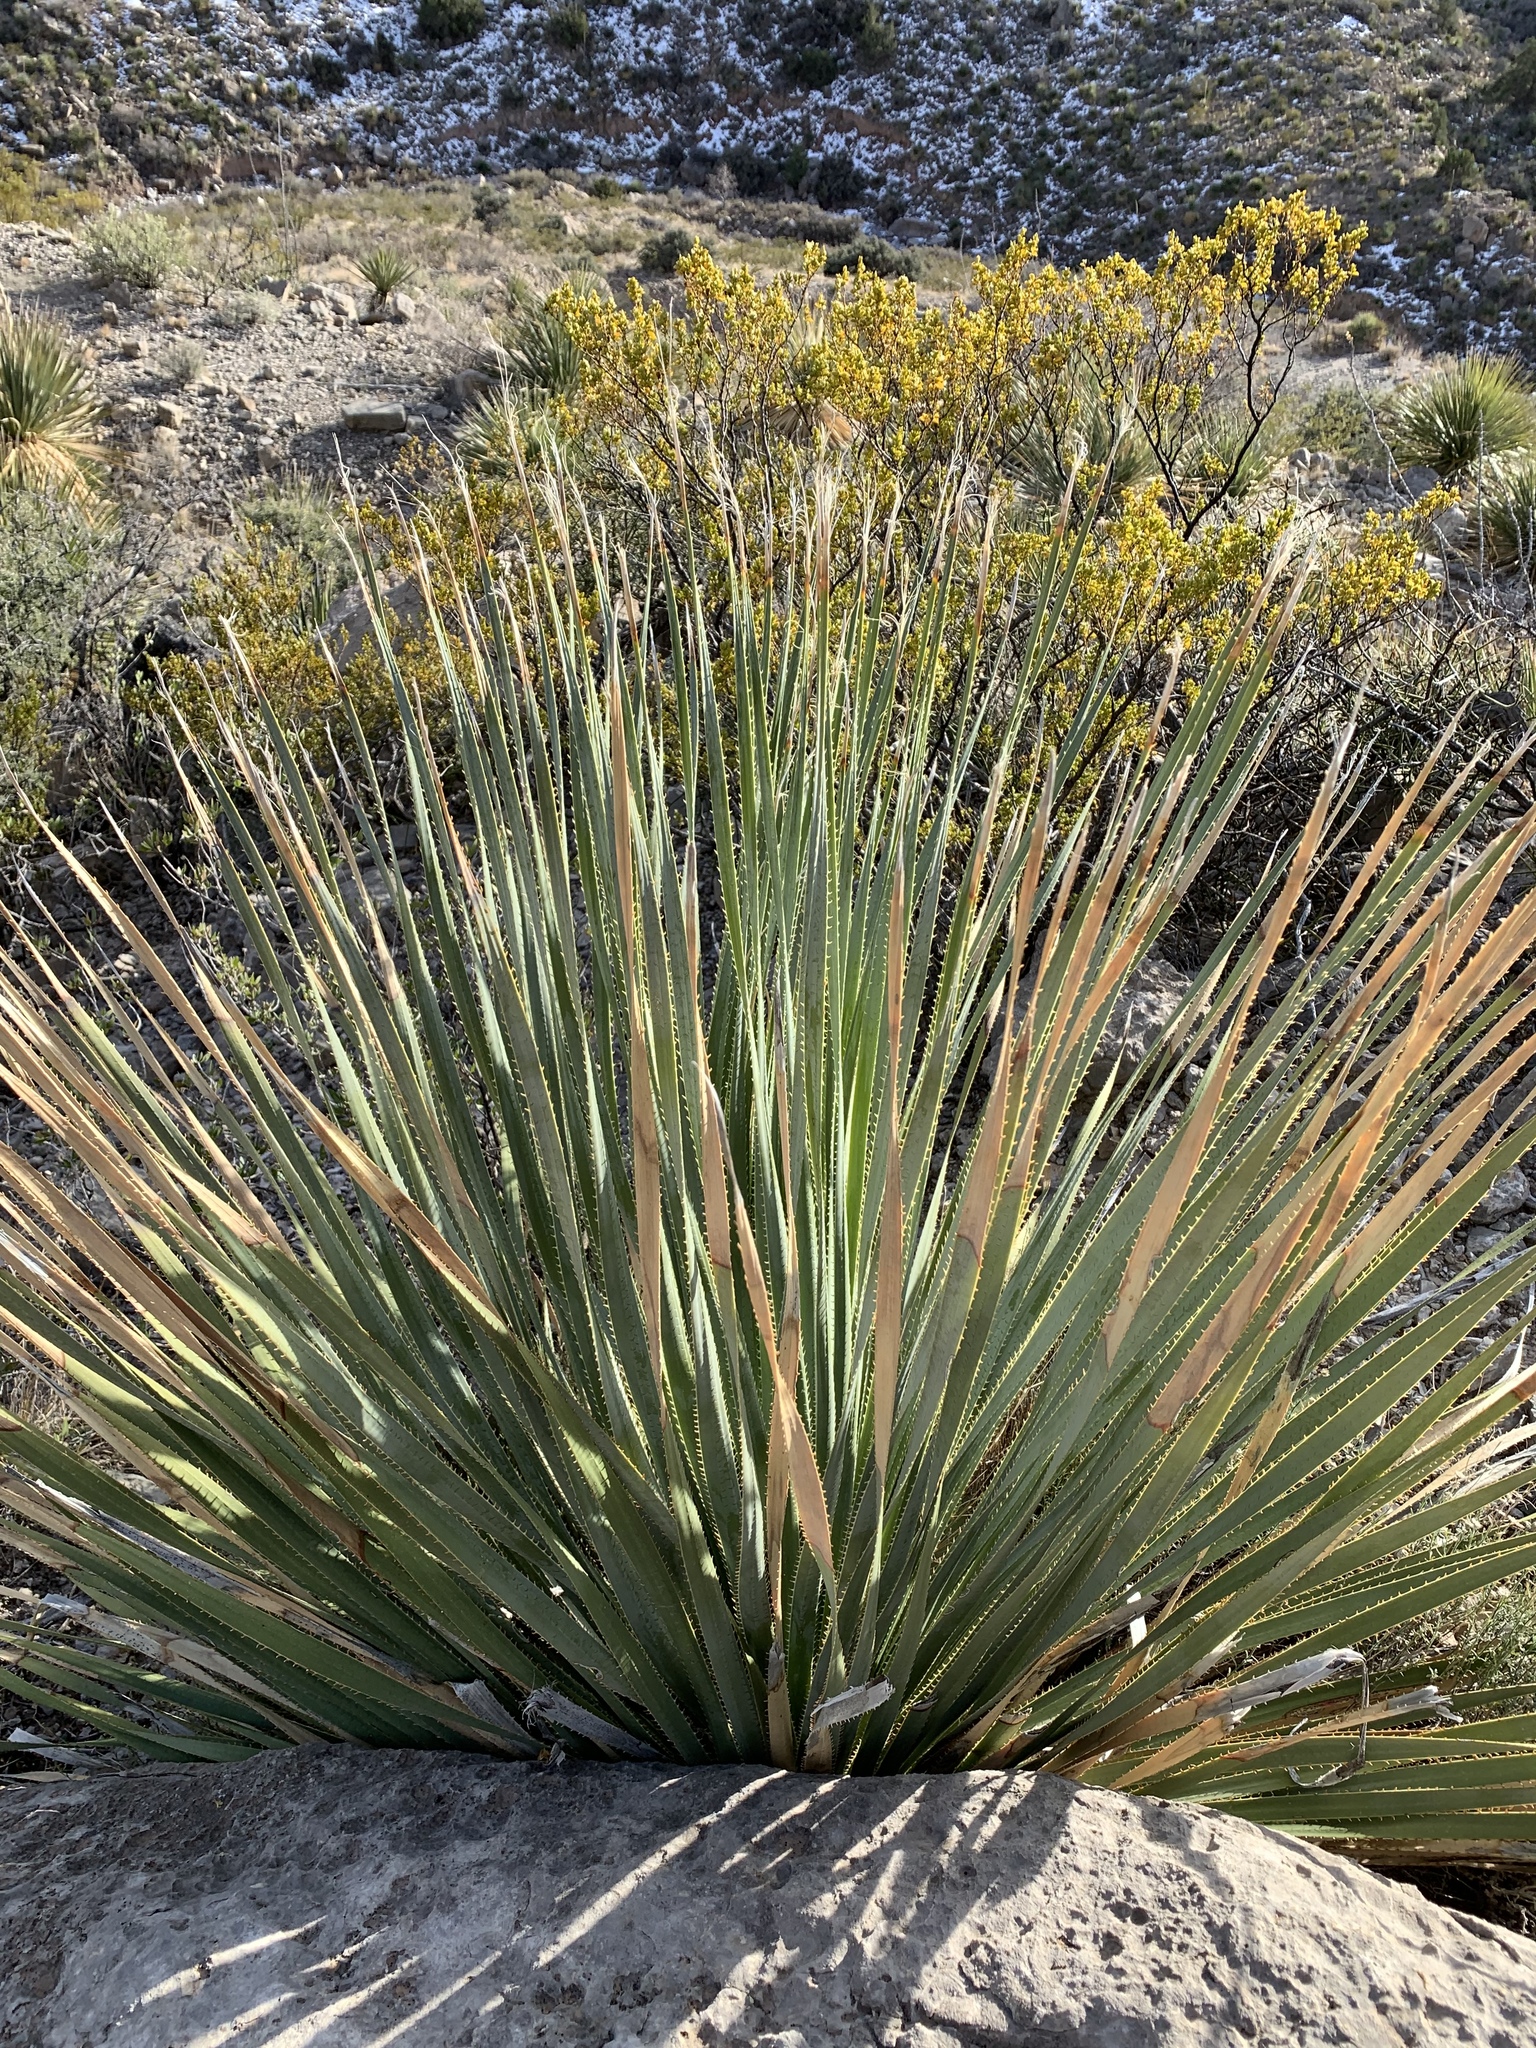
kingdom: Plantae
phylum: Tracheophyta
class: Liliopsida
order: Asparagales
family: Asparagaceae
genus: Dasylirion
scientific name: Dasylirion wheeleri
